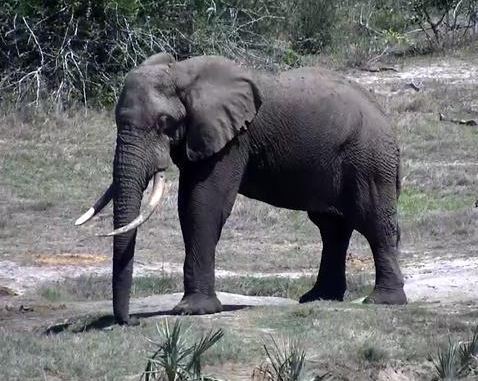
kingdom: Animalia
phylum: Chordata
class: Mammalia
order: Proboscidea
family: Elephantidae
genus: Loxodonta
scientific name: Loxodonta africana
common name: African elephant
